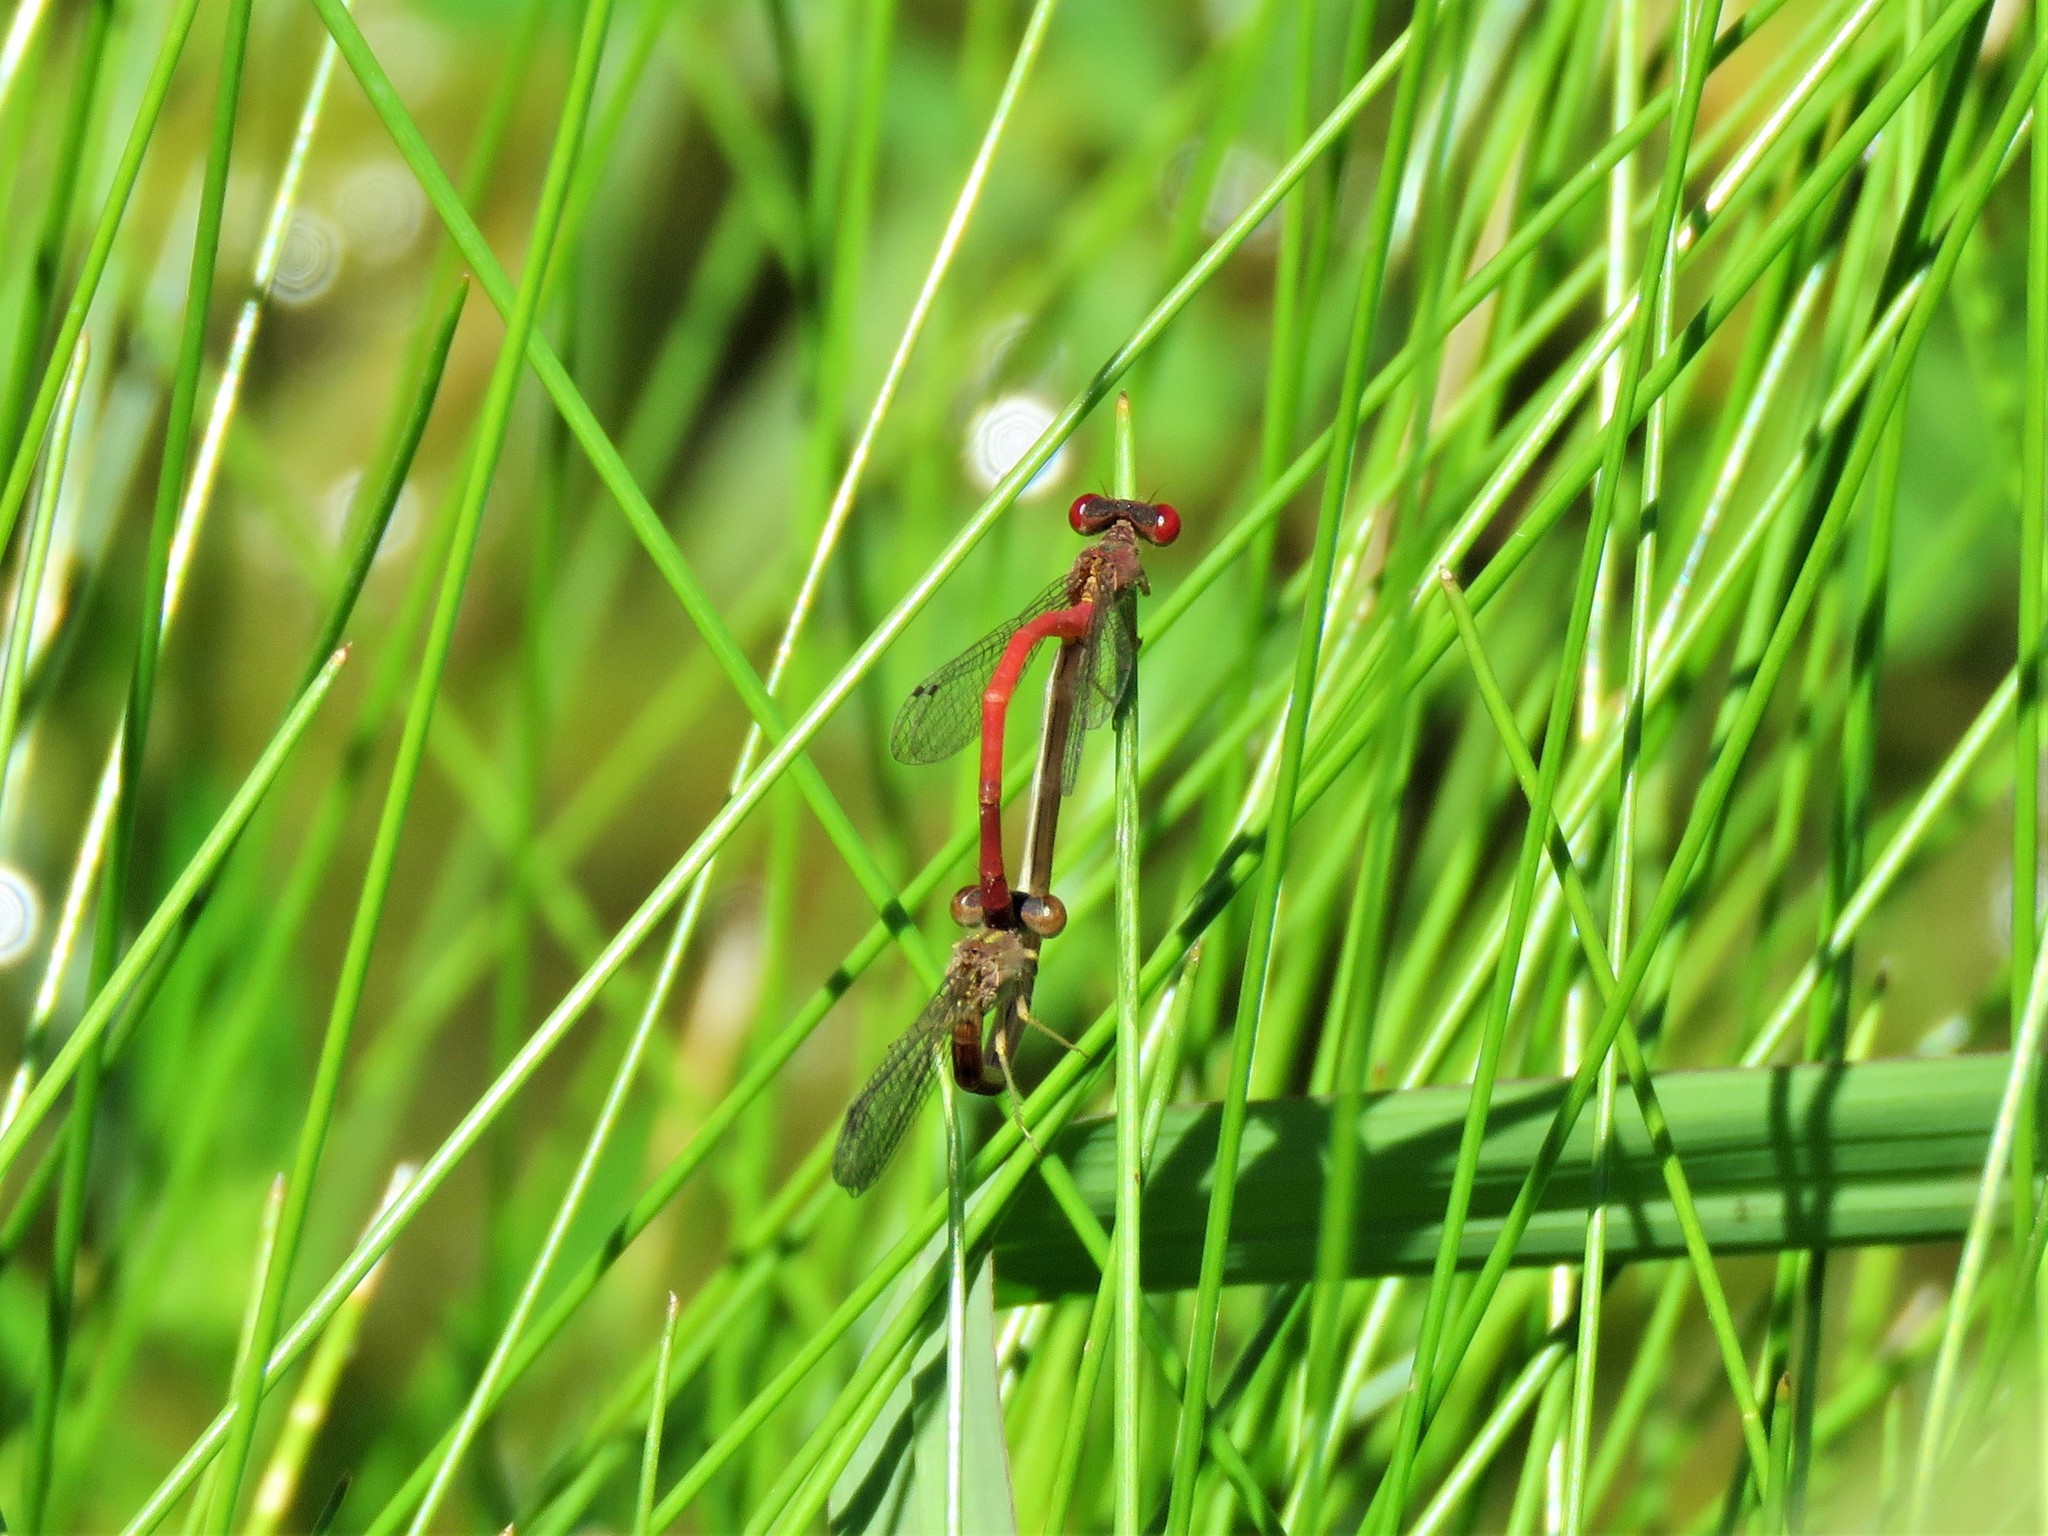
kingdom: Animalia
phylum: Arthropoda
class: Insecta
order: Odonata
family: Coenagrionidae
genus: Telebasis
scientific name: Telebasis salva
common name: Desert firetail
